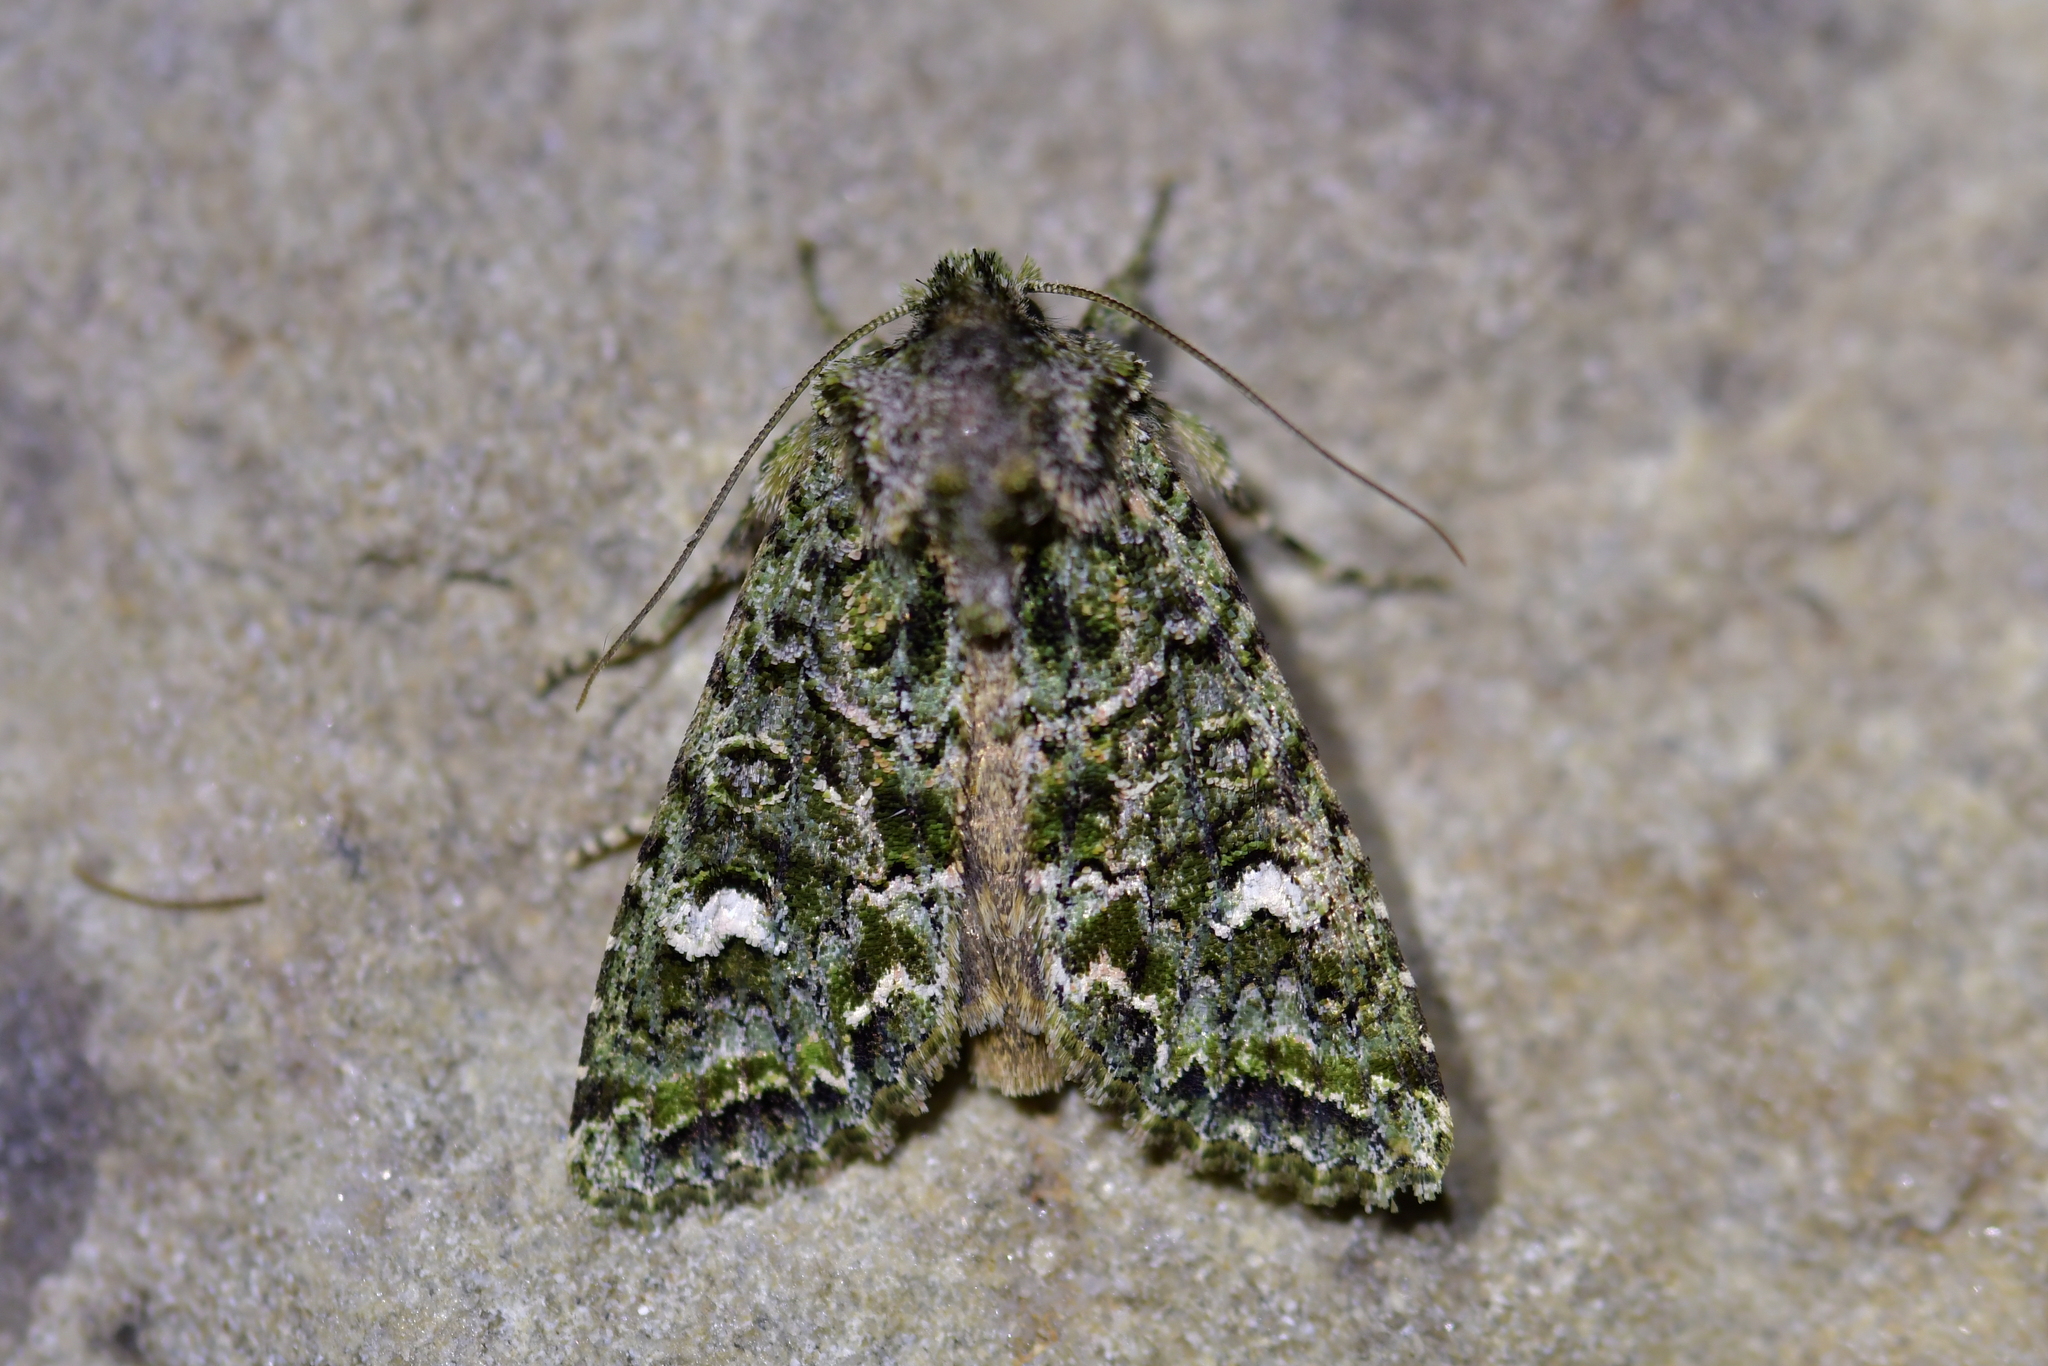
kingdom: Animalia
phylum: Arthropoda
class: Insecta
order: Lepidoptera
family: Noctuidae
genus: Ichneutica
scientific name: Ichneutica
